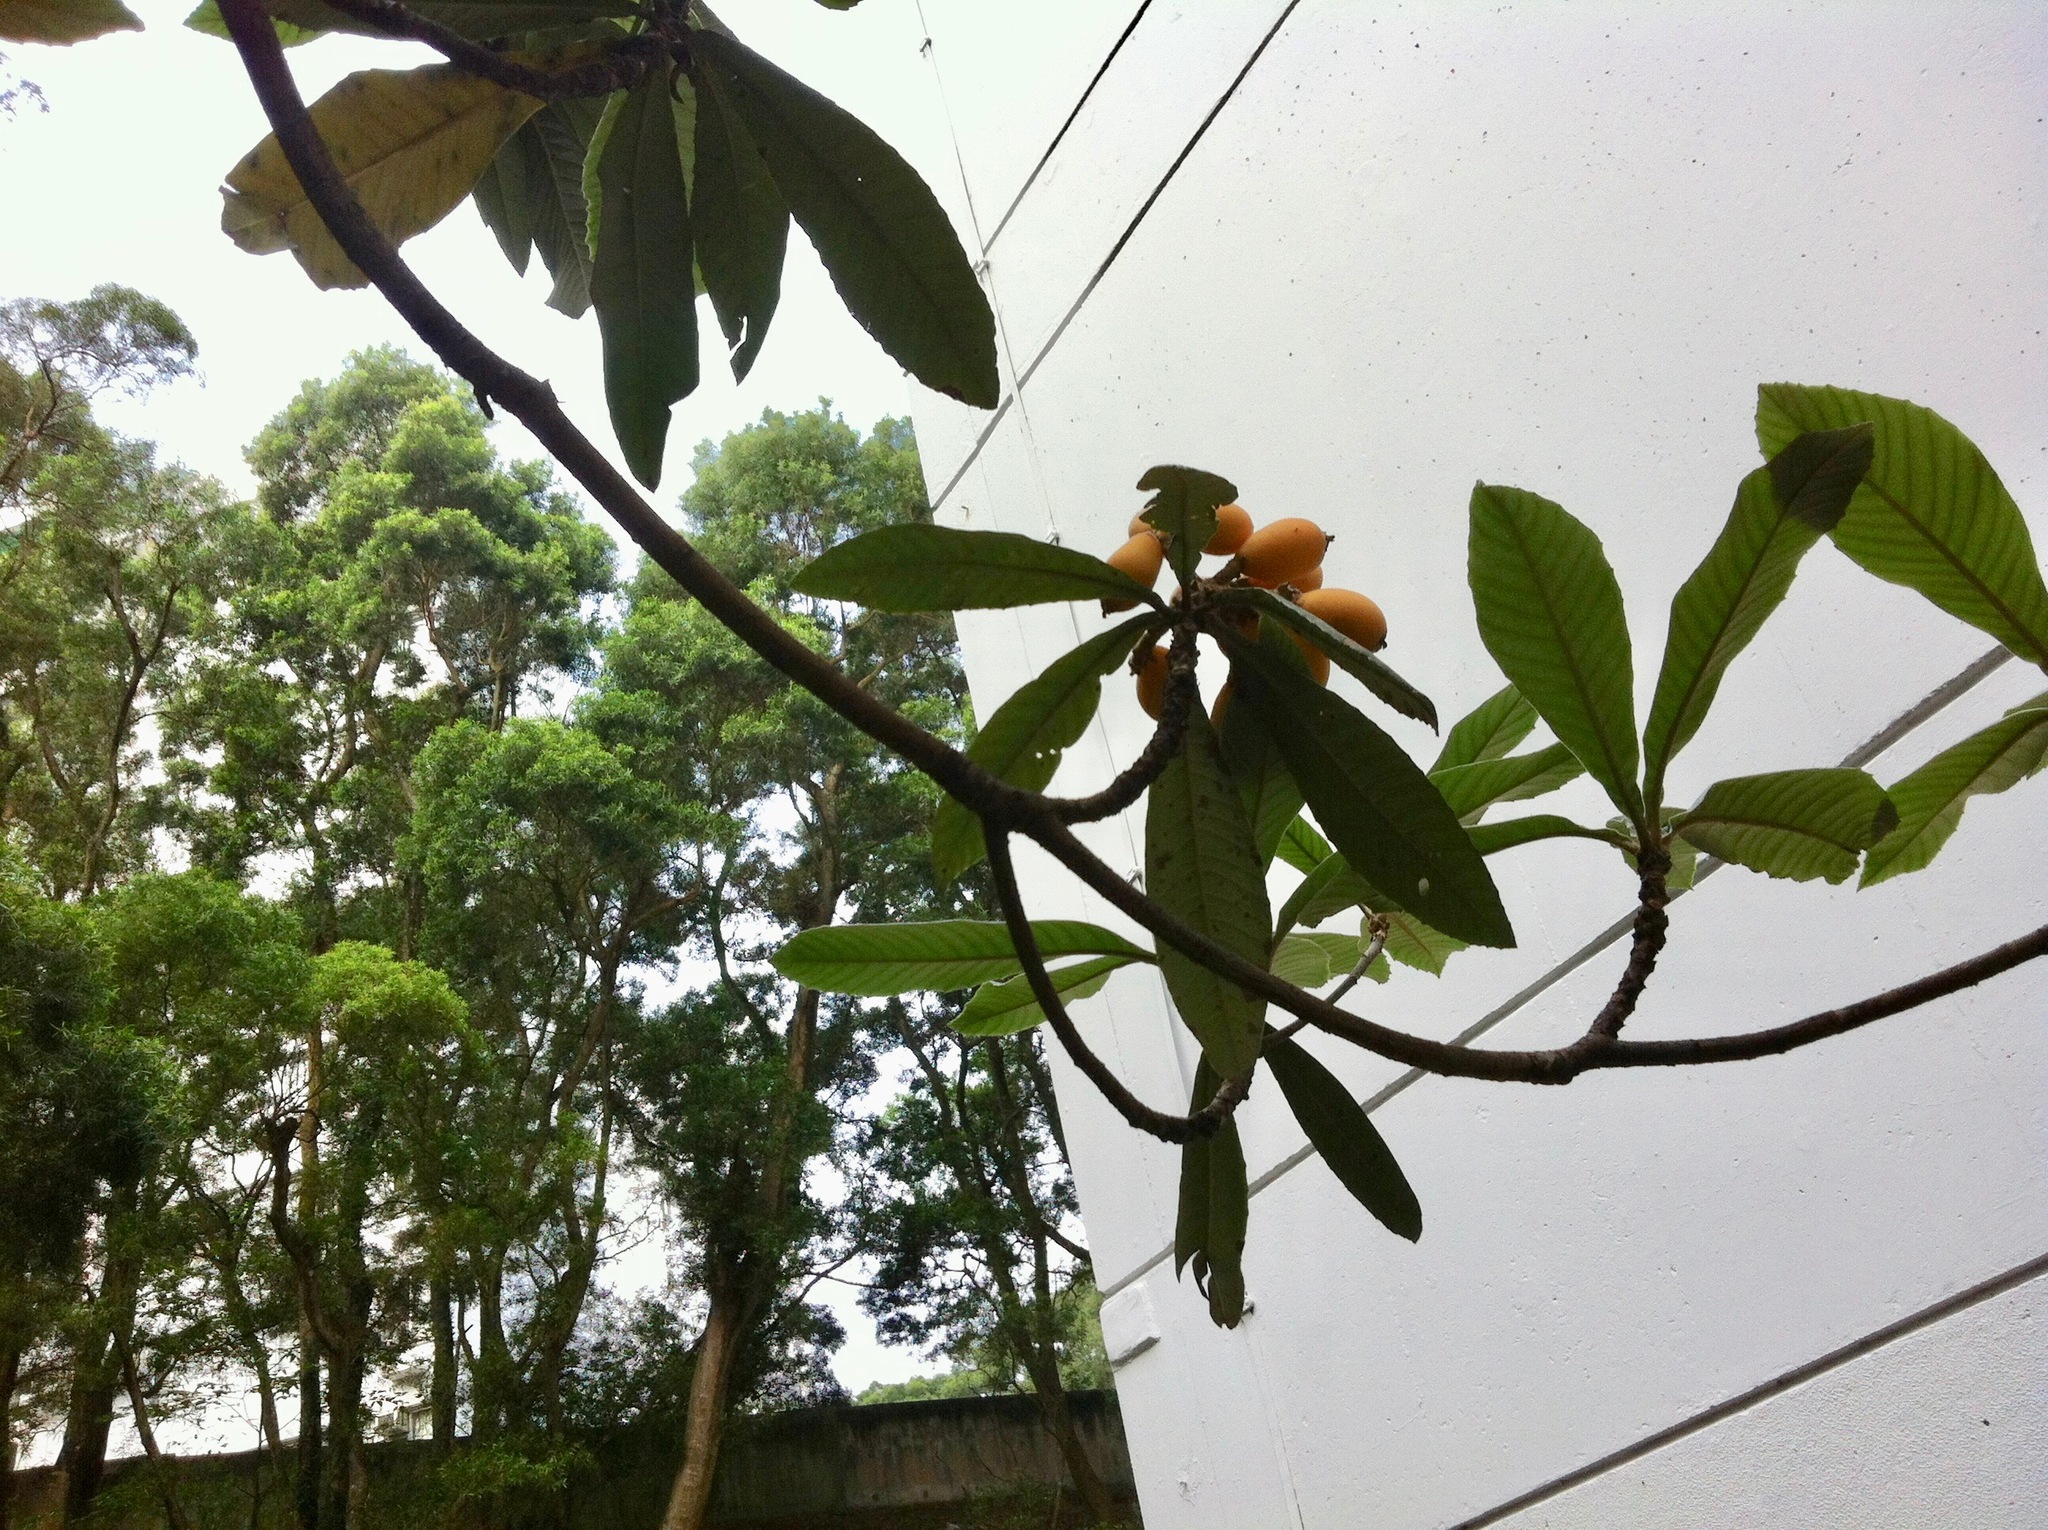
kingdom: Plantae
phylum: Tracheophyta
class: Magnoliopsida
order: Rosales
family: Rosaceae
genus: Rhaphiolepis
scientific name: Rhaphiolepis bibas
